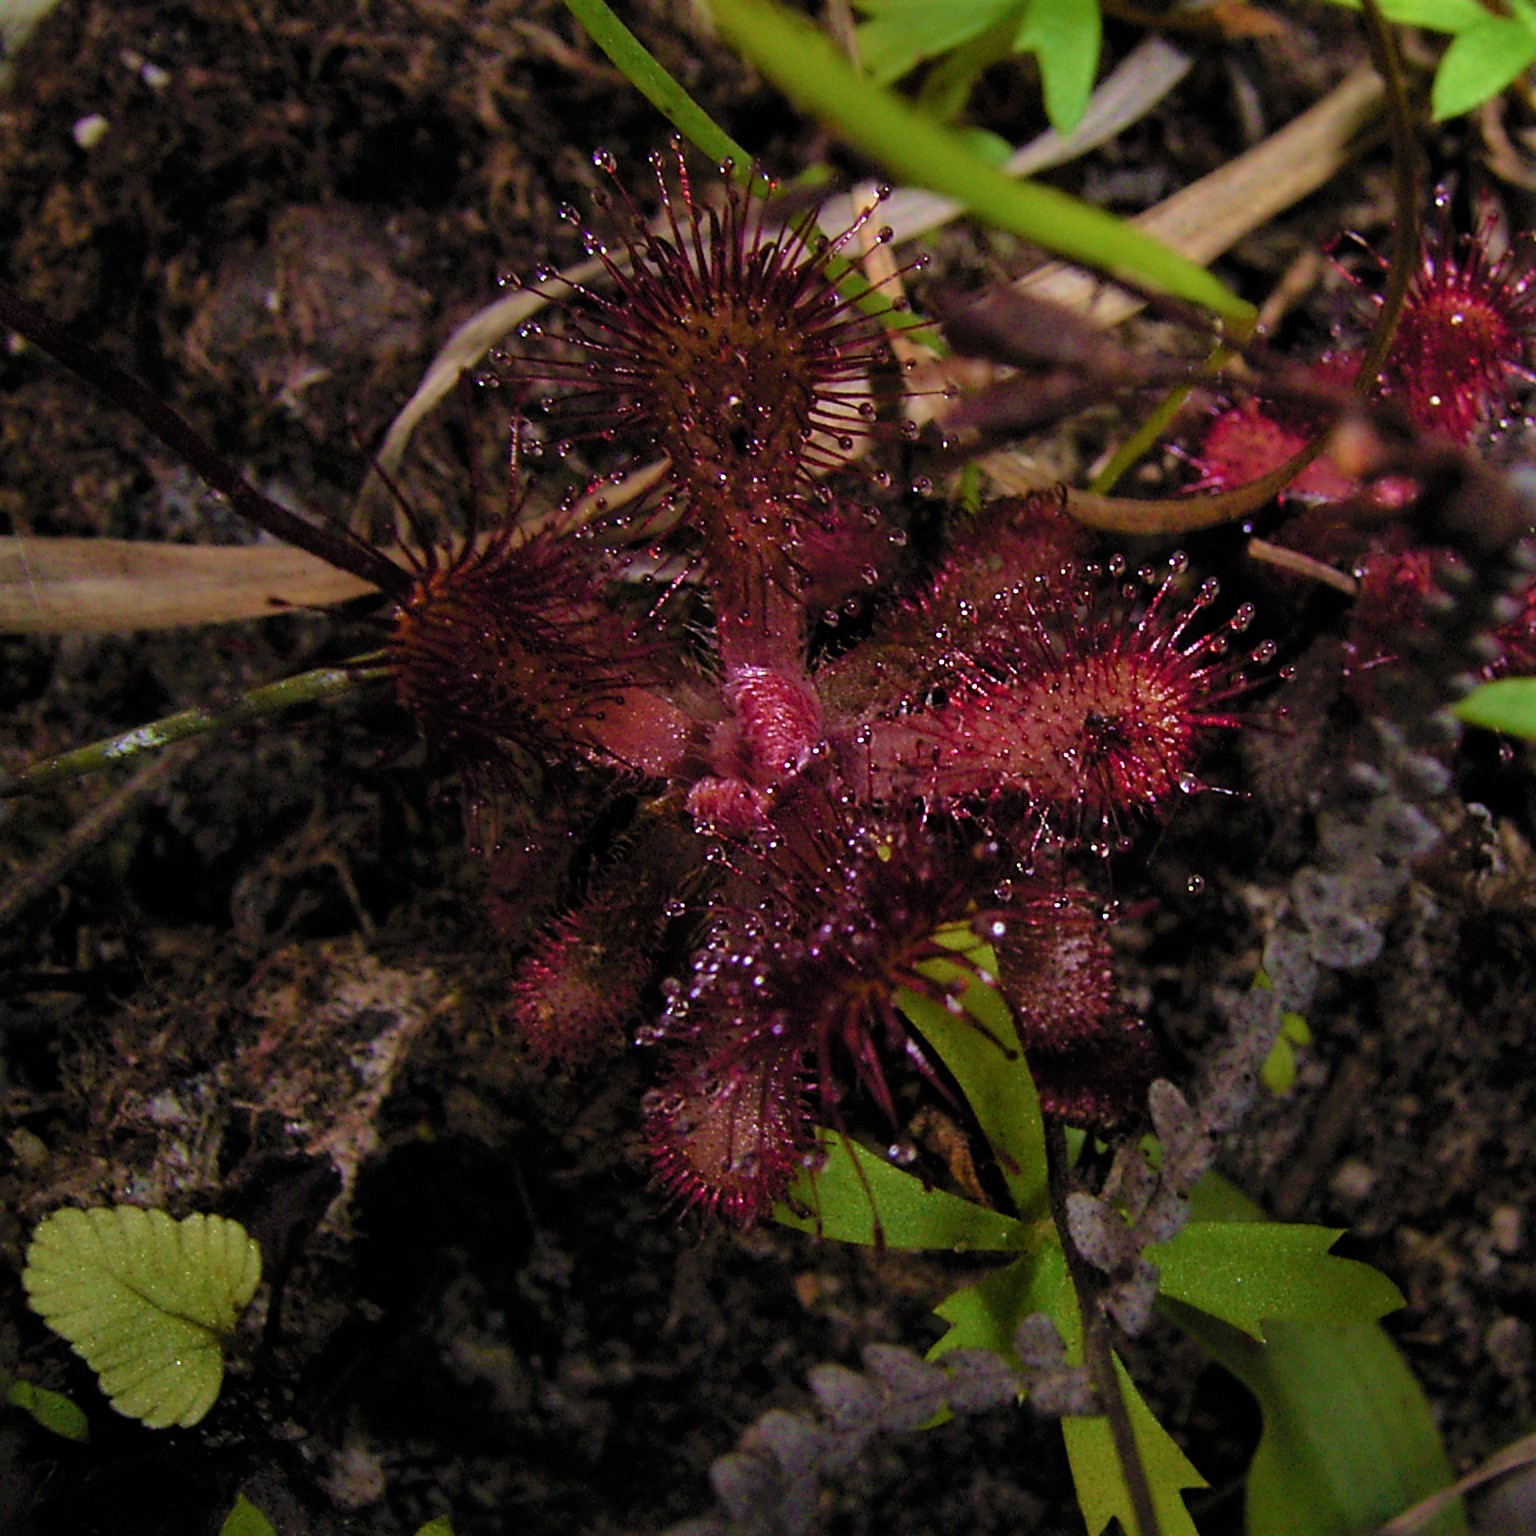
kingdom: Plantae
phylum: Tracheophyta
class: Magnoliopsida
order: Caryophyllales
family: Droseraceae
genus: Drosera
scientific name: Drosera natalensis
